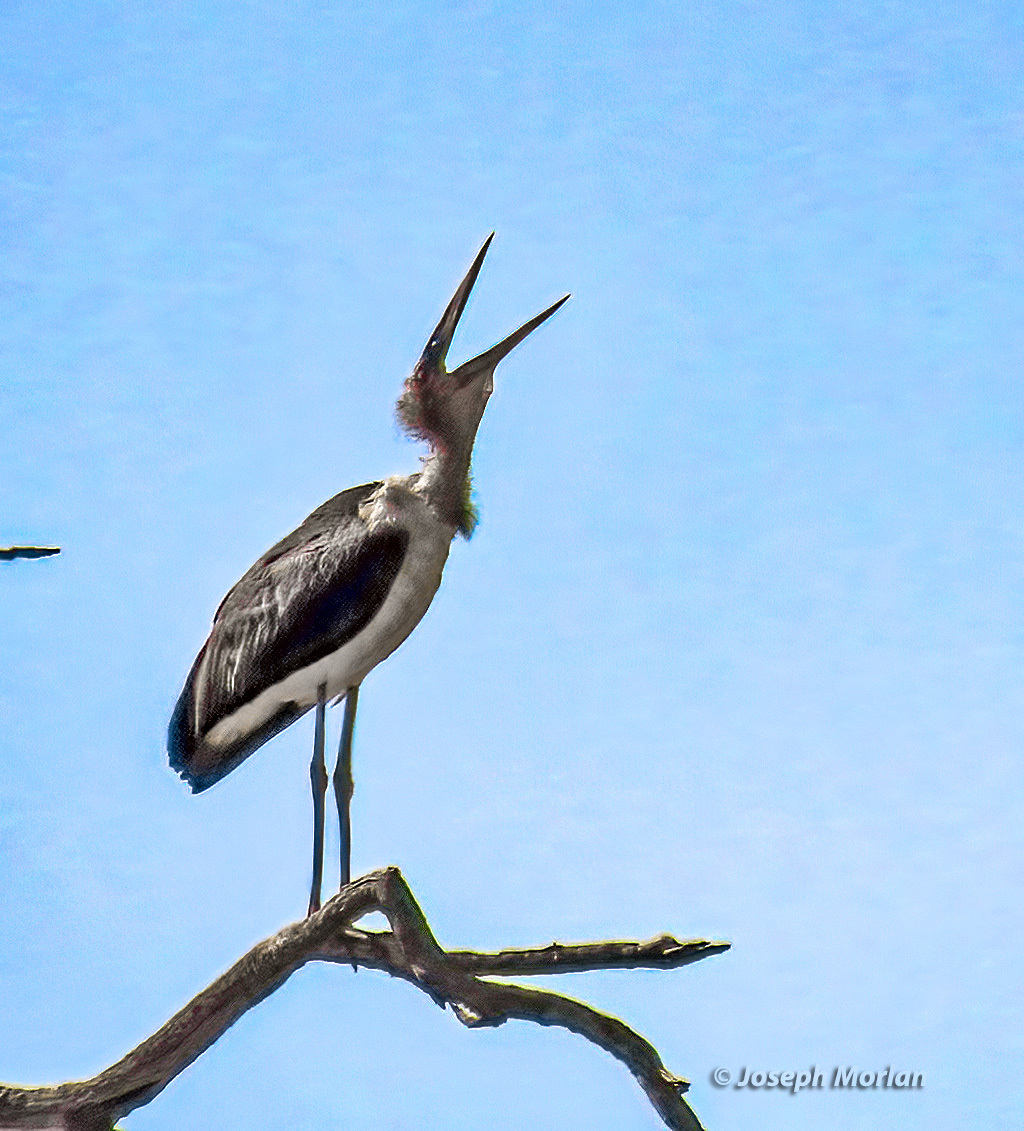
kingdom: Animalia
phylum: Chordata
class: Aves
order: Ciconiiformes
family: Ciconiidae
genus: Leptoptilos
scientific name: Leptoptilos crumenifer
